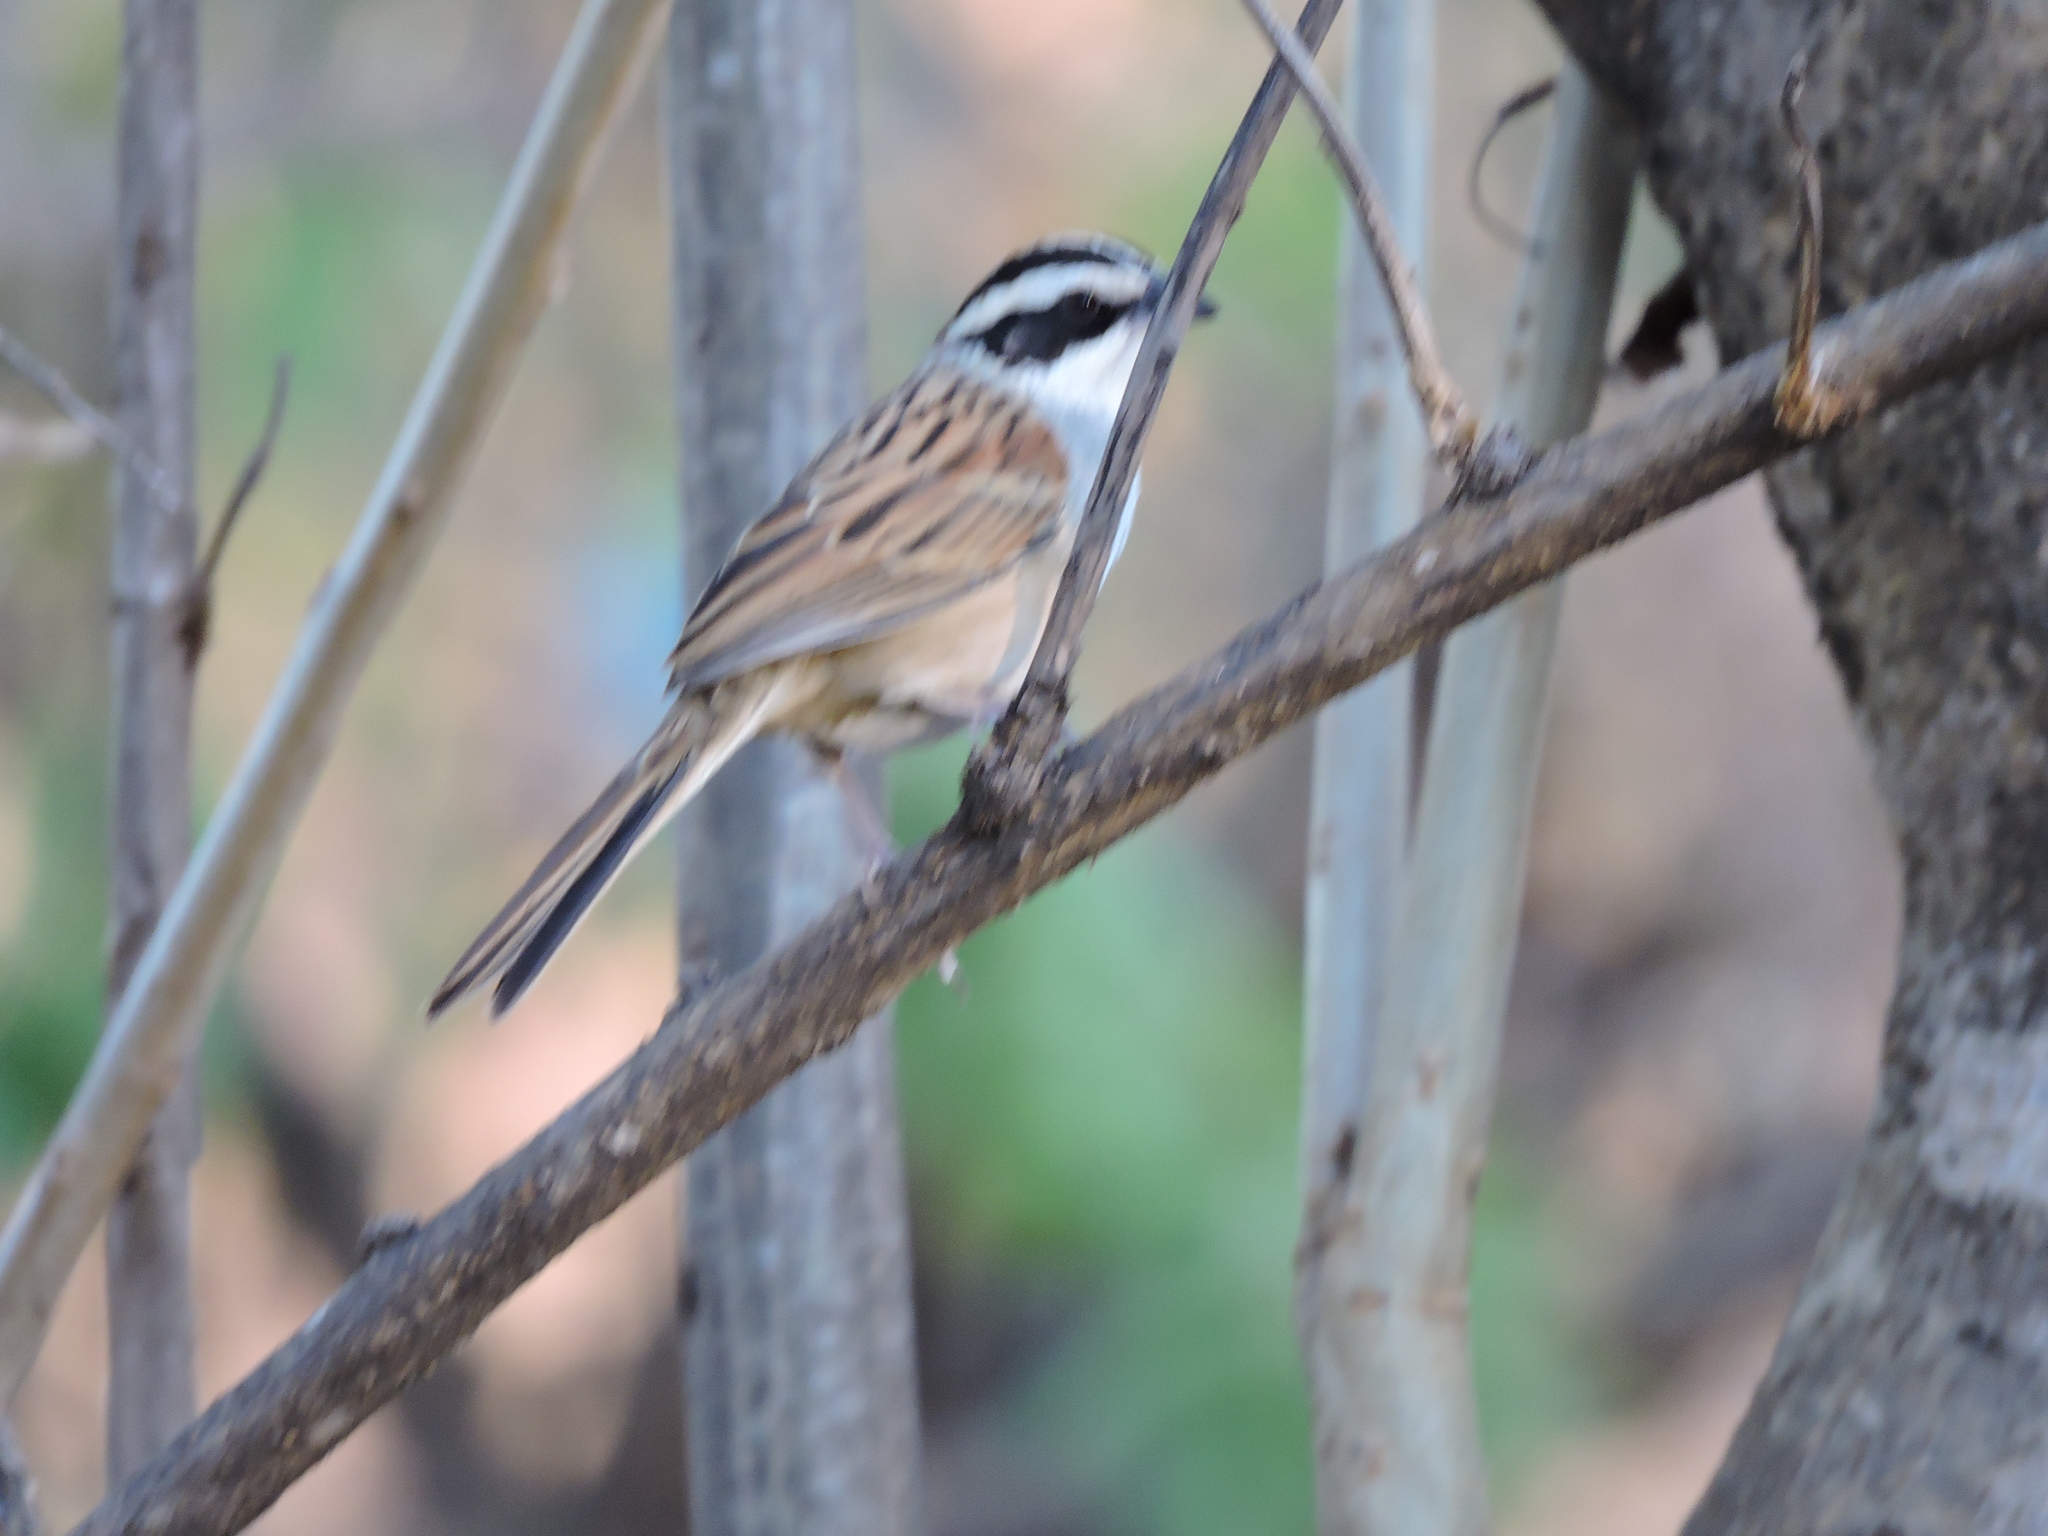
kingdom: Animalia
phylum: Chordata
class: Aves
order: Passeriformes
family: Passerellidae
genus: Peucaea
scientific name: Peucaea ruficauda
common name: Stripe-headed sparrow
